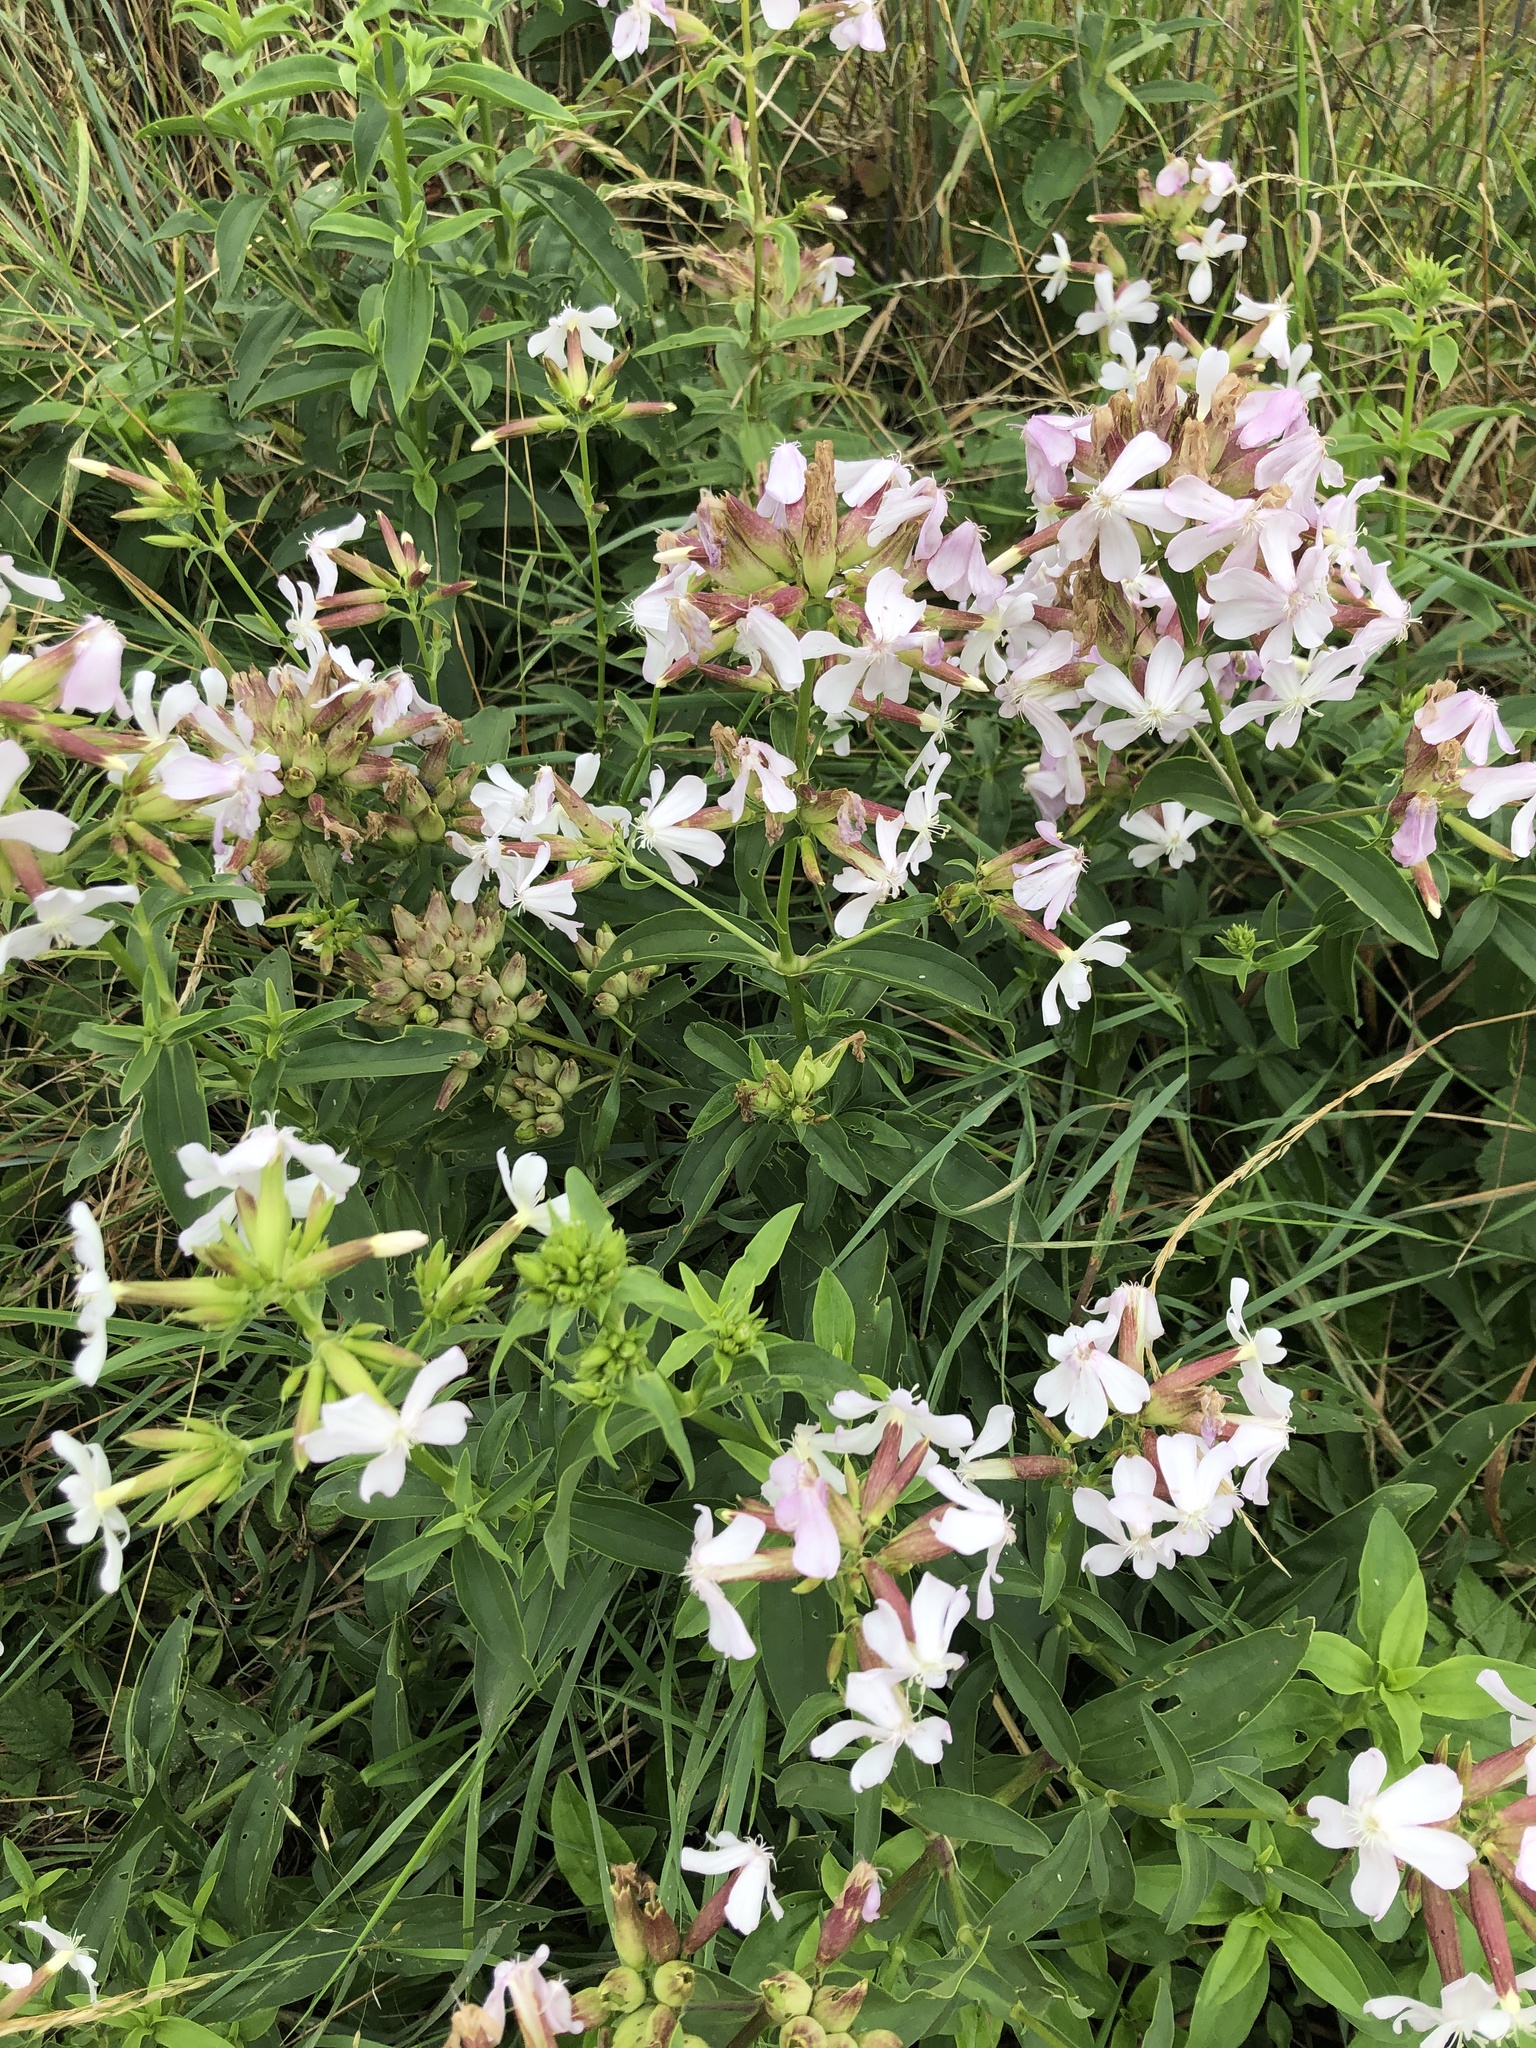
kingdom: Plantae
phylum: Tracheophyta
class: Magnoliopsida
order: Caryophyllales
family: Caryophyllaceae
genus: Saponaria
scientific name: Saponaria officinalis
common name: Soapwort
